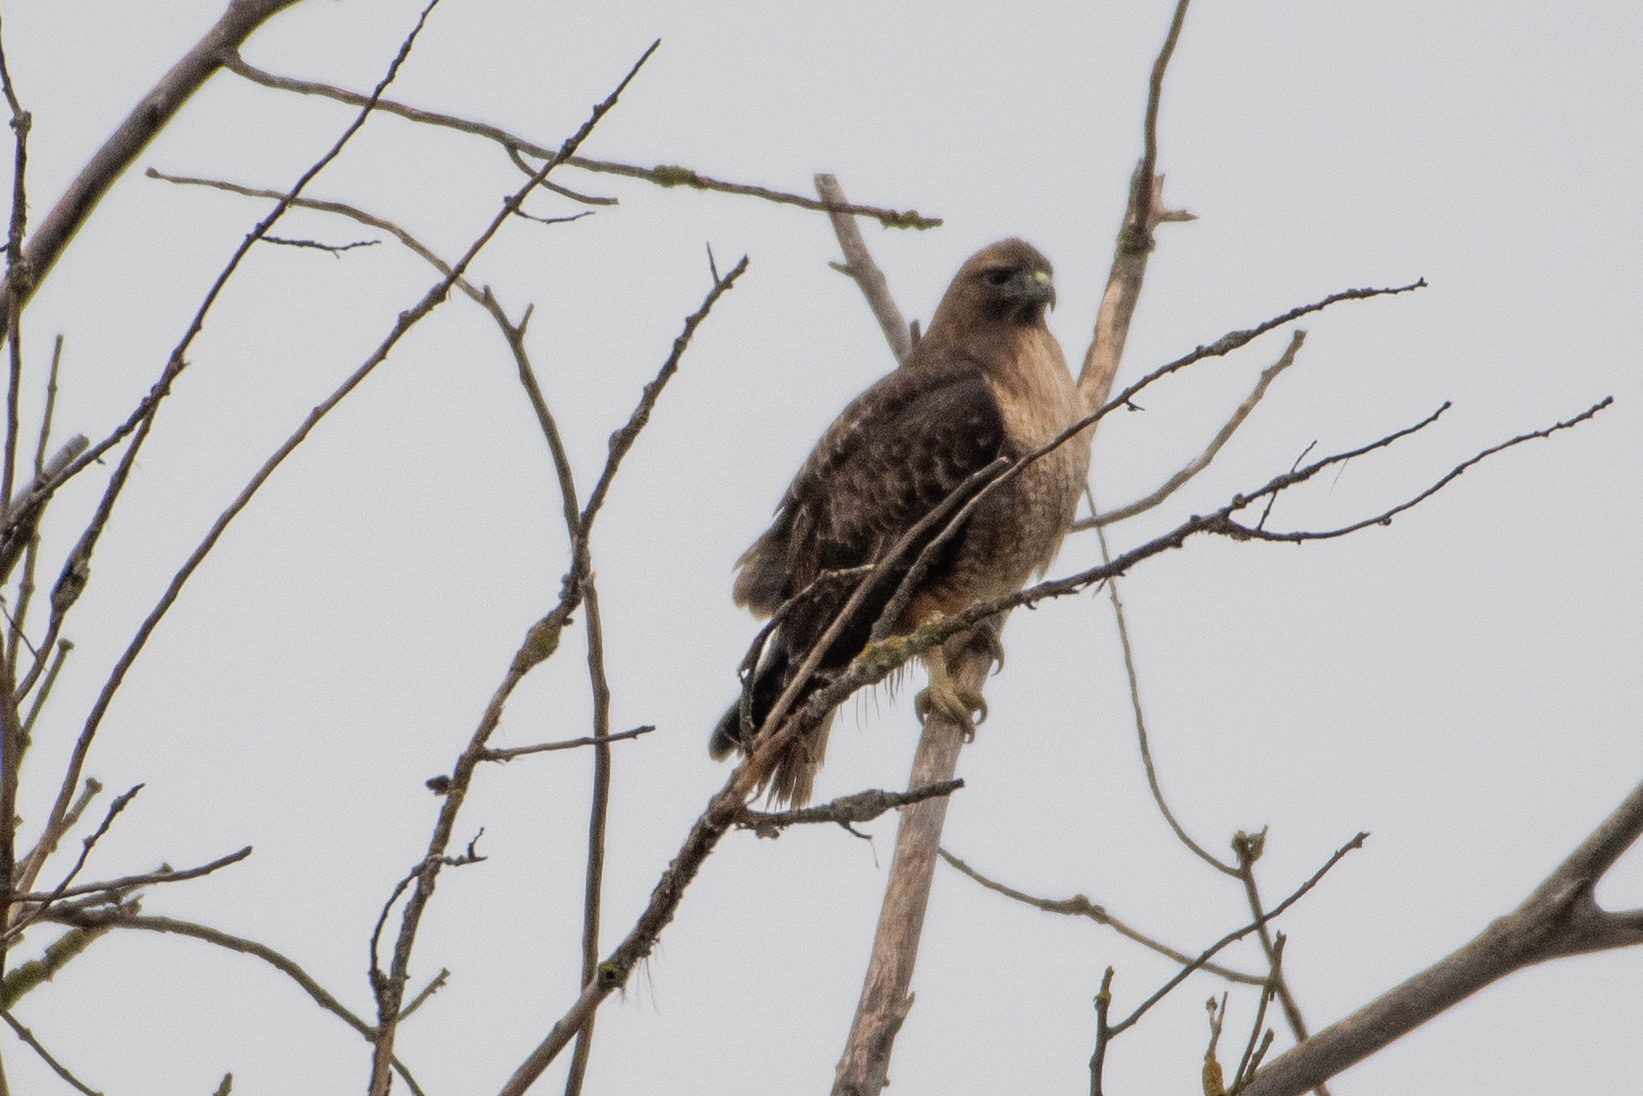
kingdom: Animalia
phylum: Chordata
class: Aves
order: Accipitriformes
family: Accipitridae
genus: Buteo
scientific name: Buteo jamaicensis
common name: Red-tailed hawk
